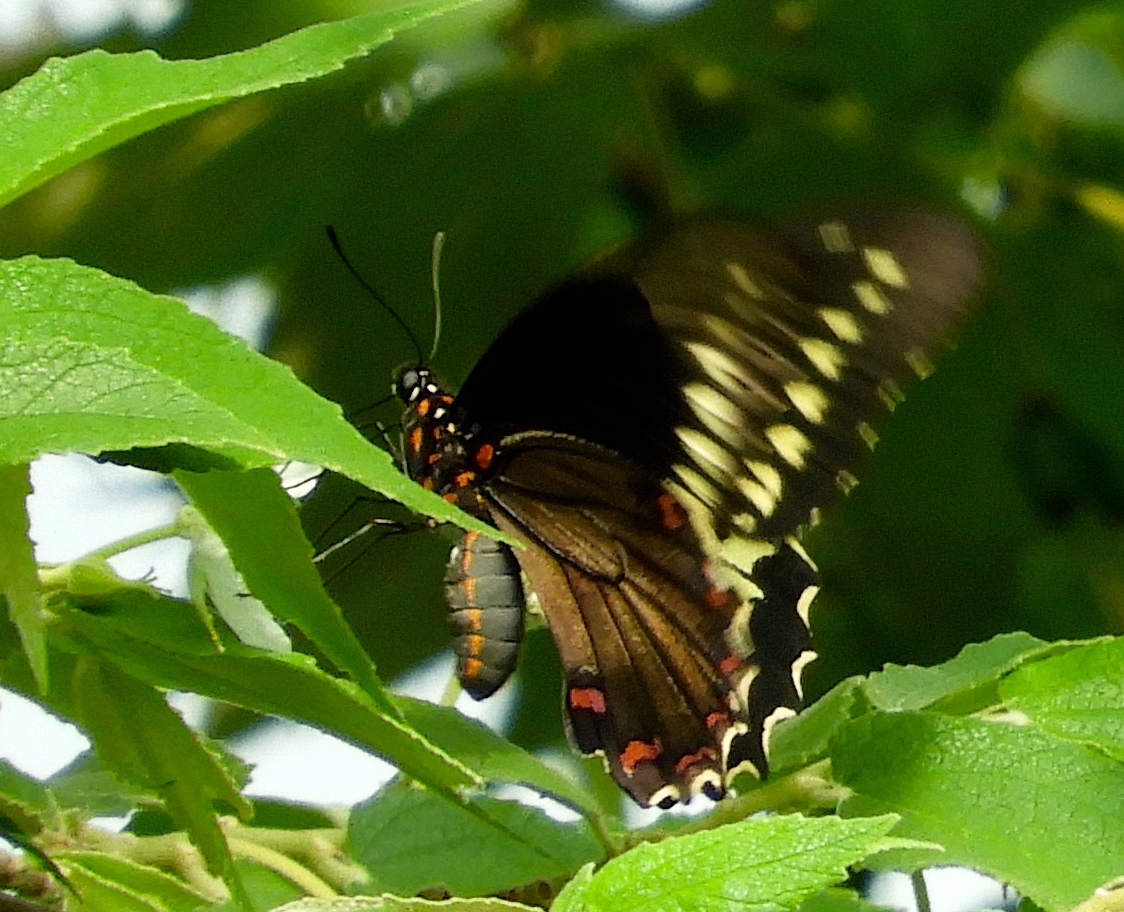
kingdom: Animalia
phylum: Arthropoda
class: Insecta
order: Lepidoptera
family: Papilionidae
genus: Battus
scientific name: Battus polydamas
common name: Polydamas swallowtail
